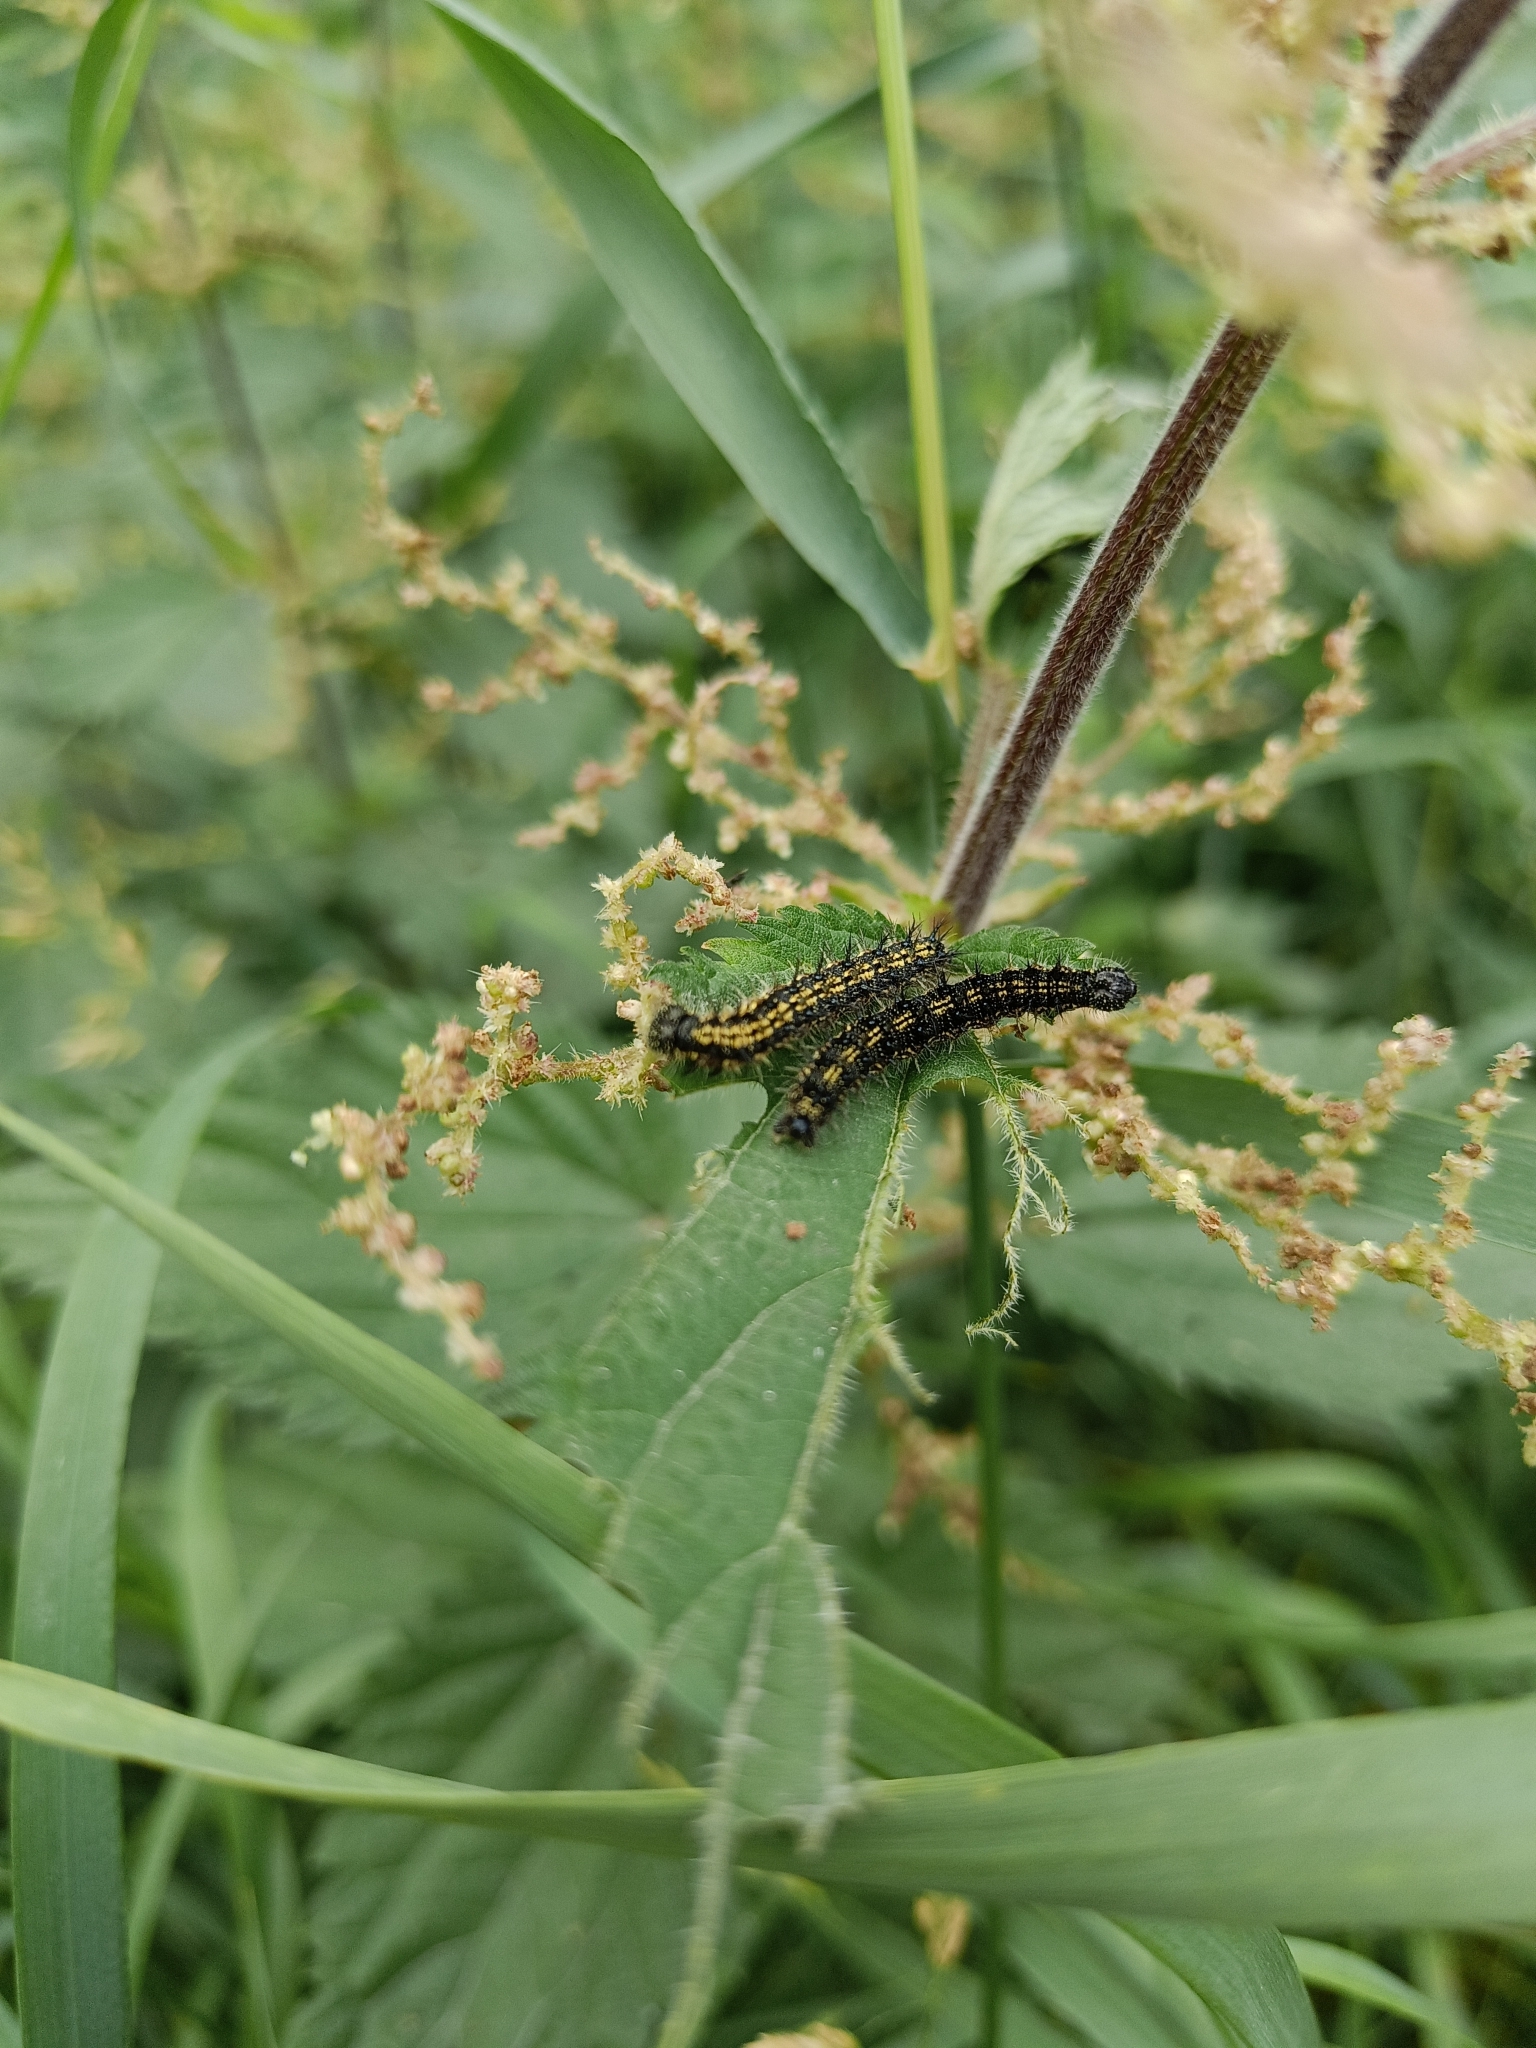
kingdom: Animalia
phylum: Arthropoda
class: Insecta
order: Lepidoptera
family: Nymphalidae
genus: Aglais
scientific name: Aglais urticae
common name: Small tortoiseshell
